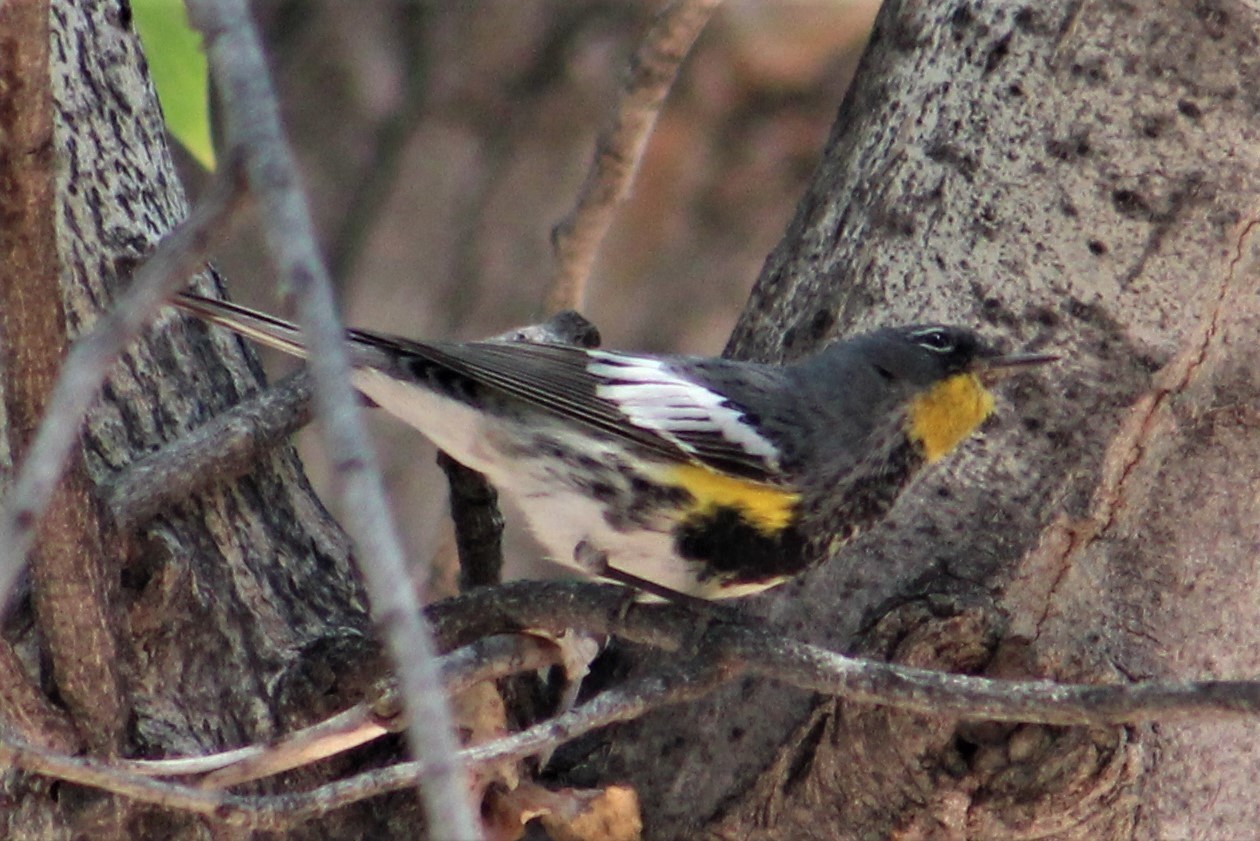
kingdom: Animalia
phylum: Chordata
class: Aves
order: Passeriformes
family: Parulidae
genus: Setophaga
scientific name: Setophaga auduboni
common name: Audubon's warbler
